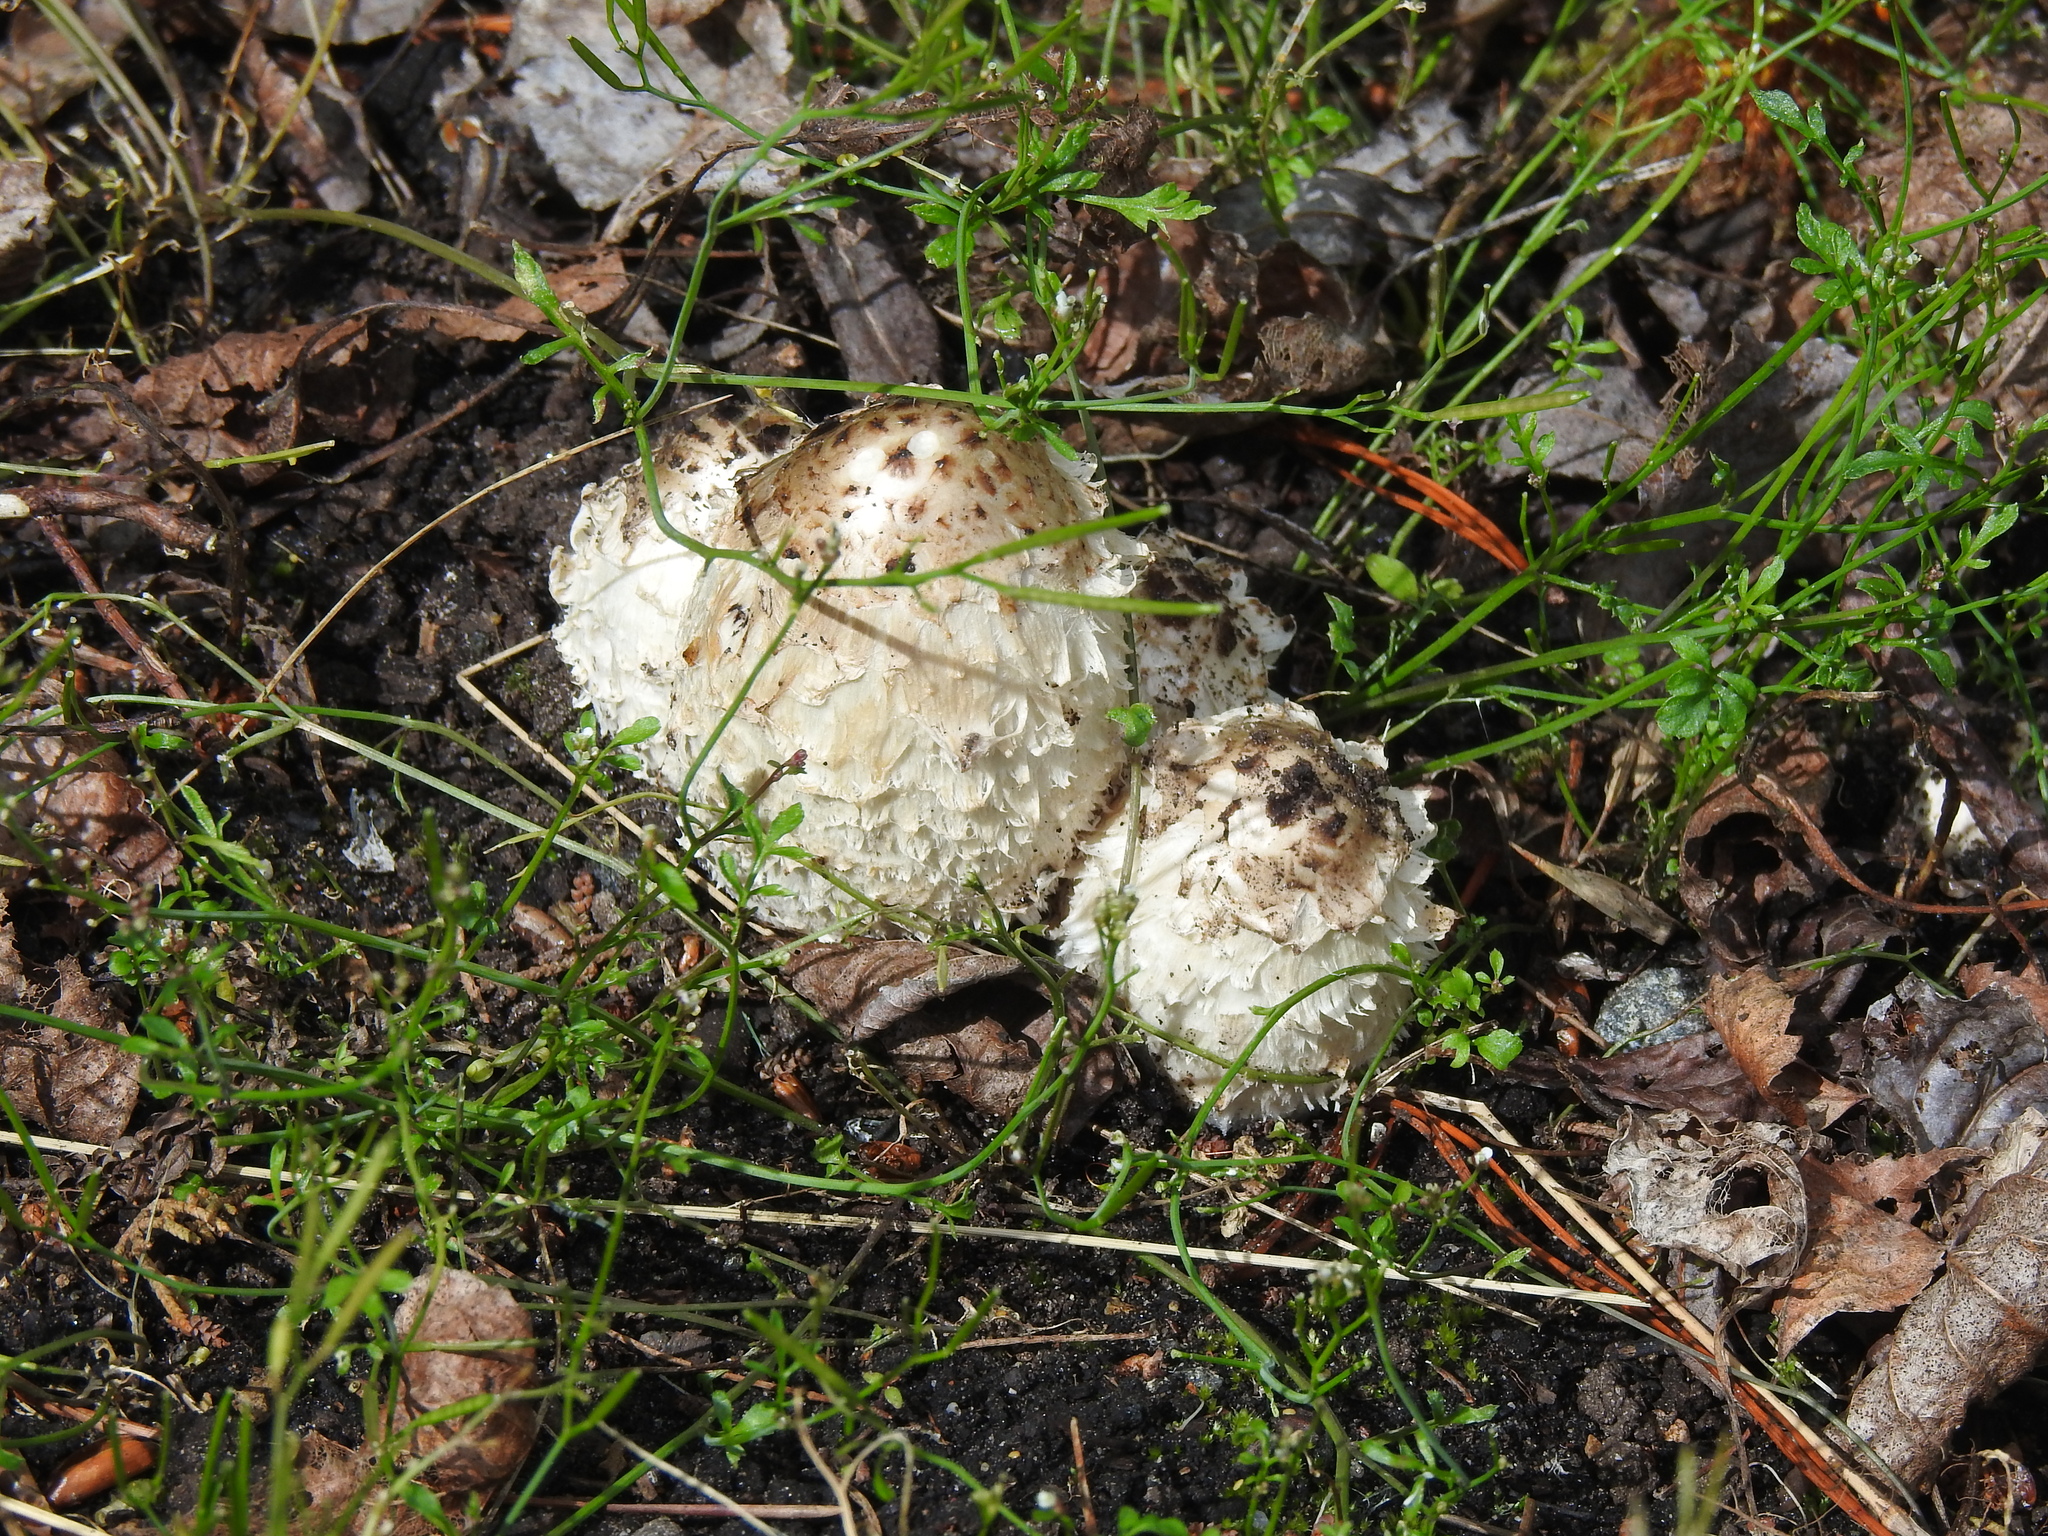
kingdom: Fungi
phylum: Basidiomycota
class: Agaricomycetes
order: Agaricales
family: Agaricaceae
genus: Coprinus
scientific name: Coprinus comatus
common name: Lawyer's wig
